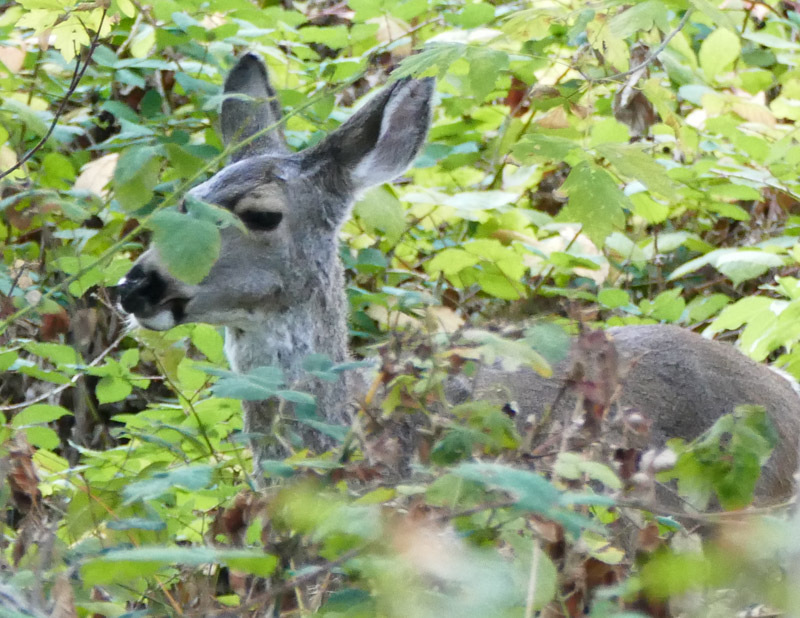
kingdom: Animalia
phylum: Chordata
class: Mammalia
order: Artiodactyla
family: Cervidae
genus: Odocoileus
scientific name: Odocoileus hemionus
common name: Mule deer
